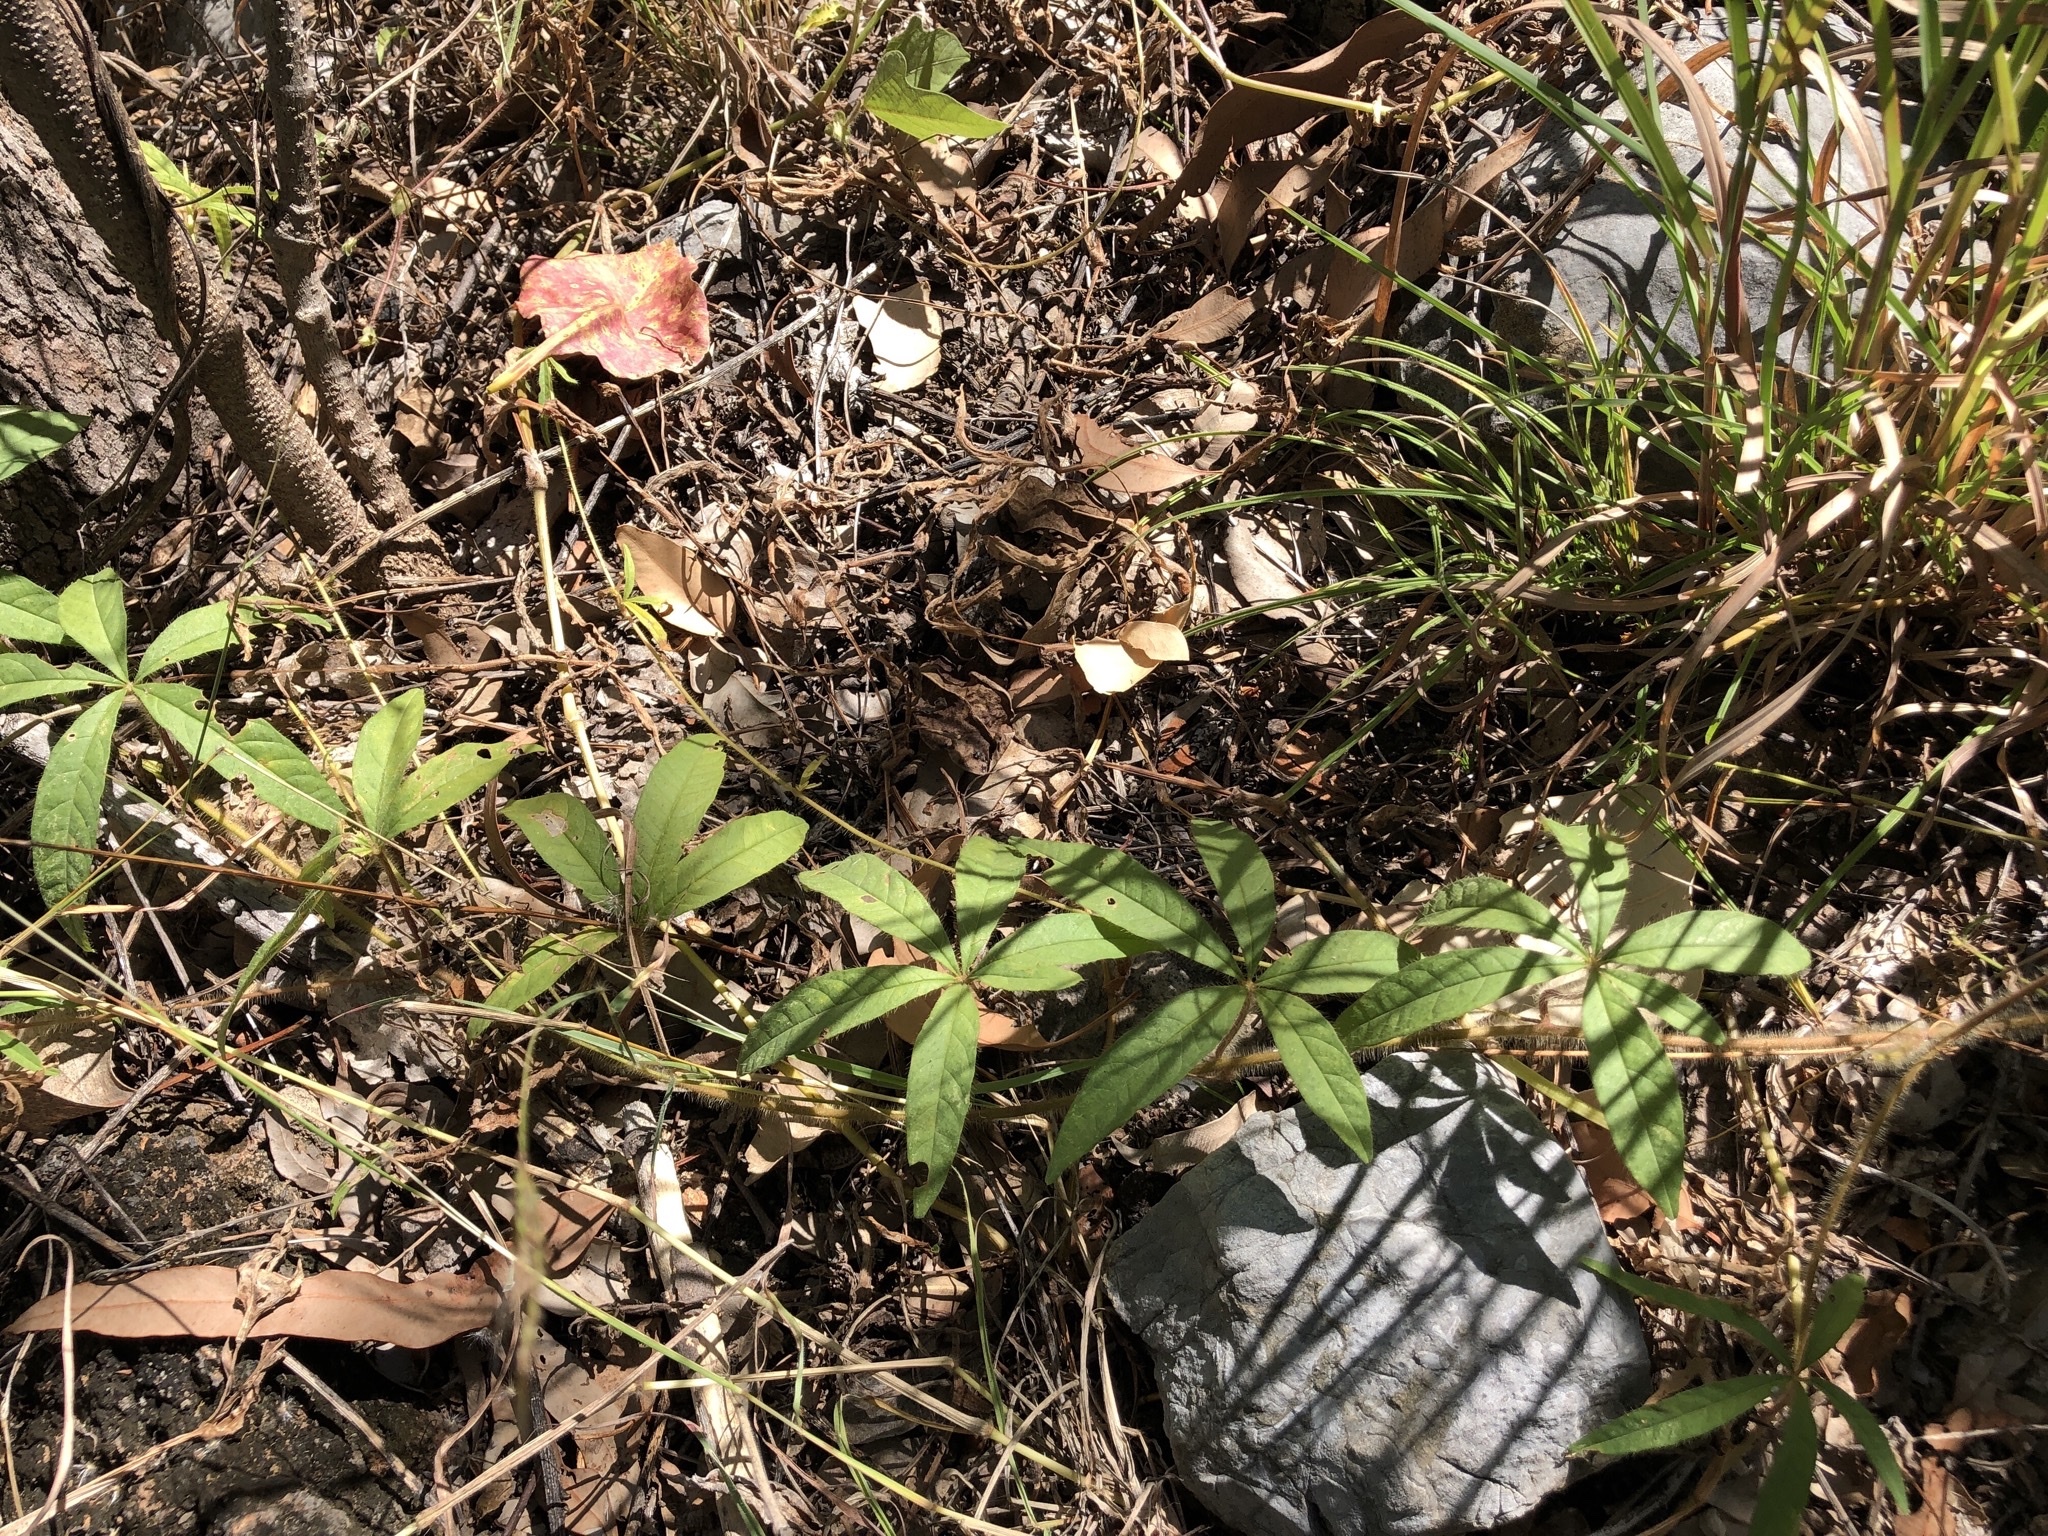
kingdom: Plantae
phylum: Tracheophyta
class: Magnoliopsida
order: Solanales
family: Convolvulaceae
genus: Distimake
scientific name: Distimake quinquefolius
